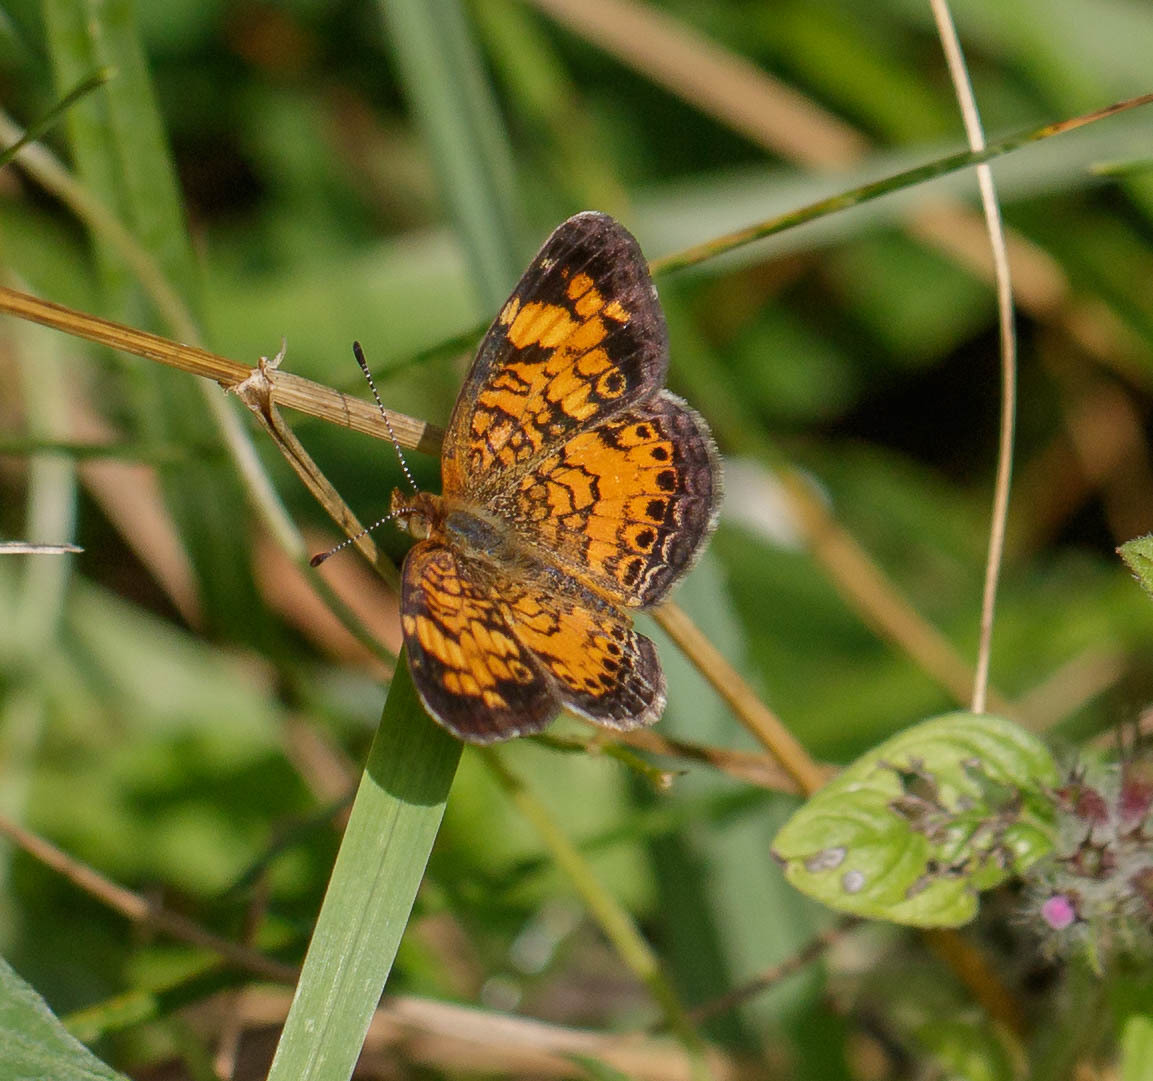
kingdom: Animalia
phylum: Arthropoda
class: Insecta
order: Lepidoptera
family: Nymphalidae
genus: Phyciodes
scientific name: Phyciodes tharos
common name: Pearl crescent
